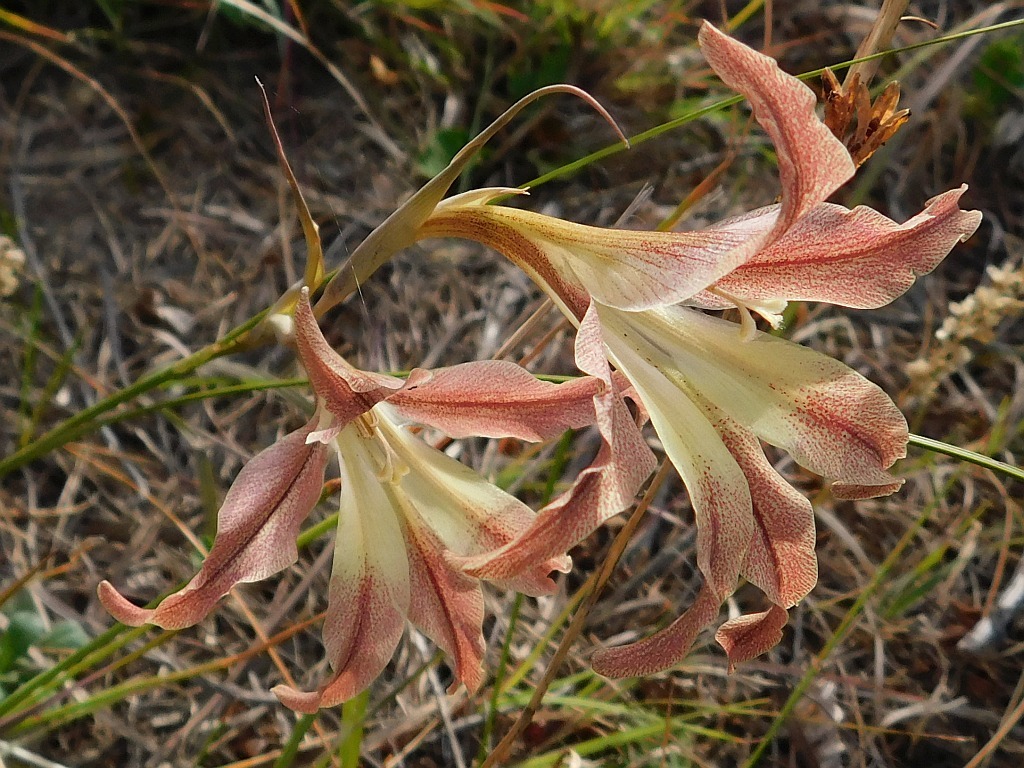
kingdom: Plantae
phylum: Tracheophyta
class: Liliopsida
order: Asparagales
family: Iridaceae
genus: Gladiolus
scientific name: Gladiolus liliaceus
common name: Large brown afrikaner
